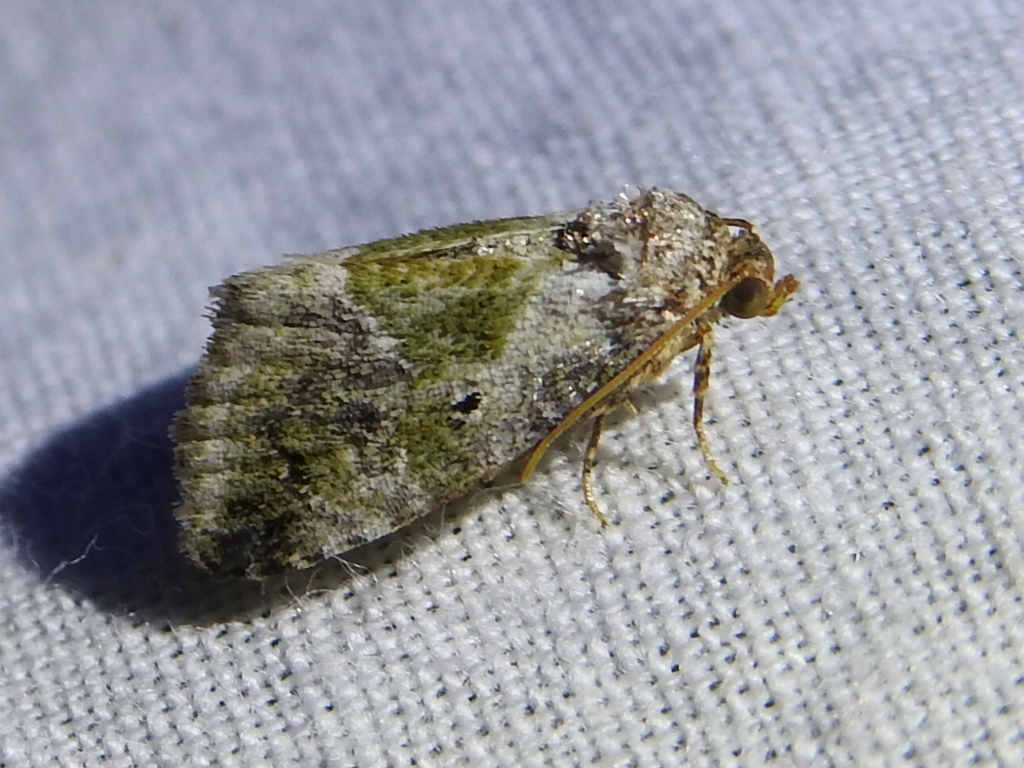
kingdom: Animalia
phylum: Arthropoda
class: Insecta
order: Lepidoptera
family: Noctuidae
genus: Maliattha
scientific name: Maliattha synochitis
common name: Black-dotted glyph
